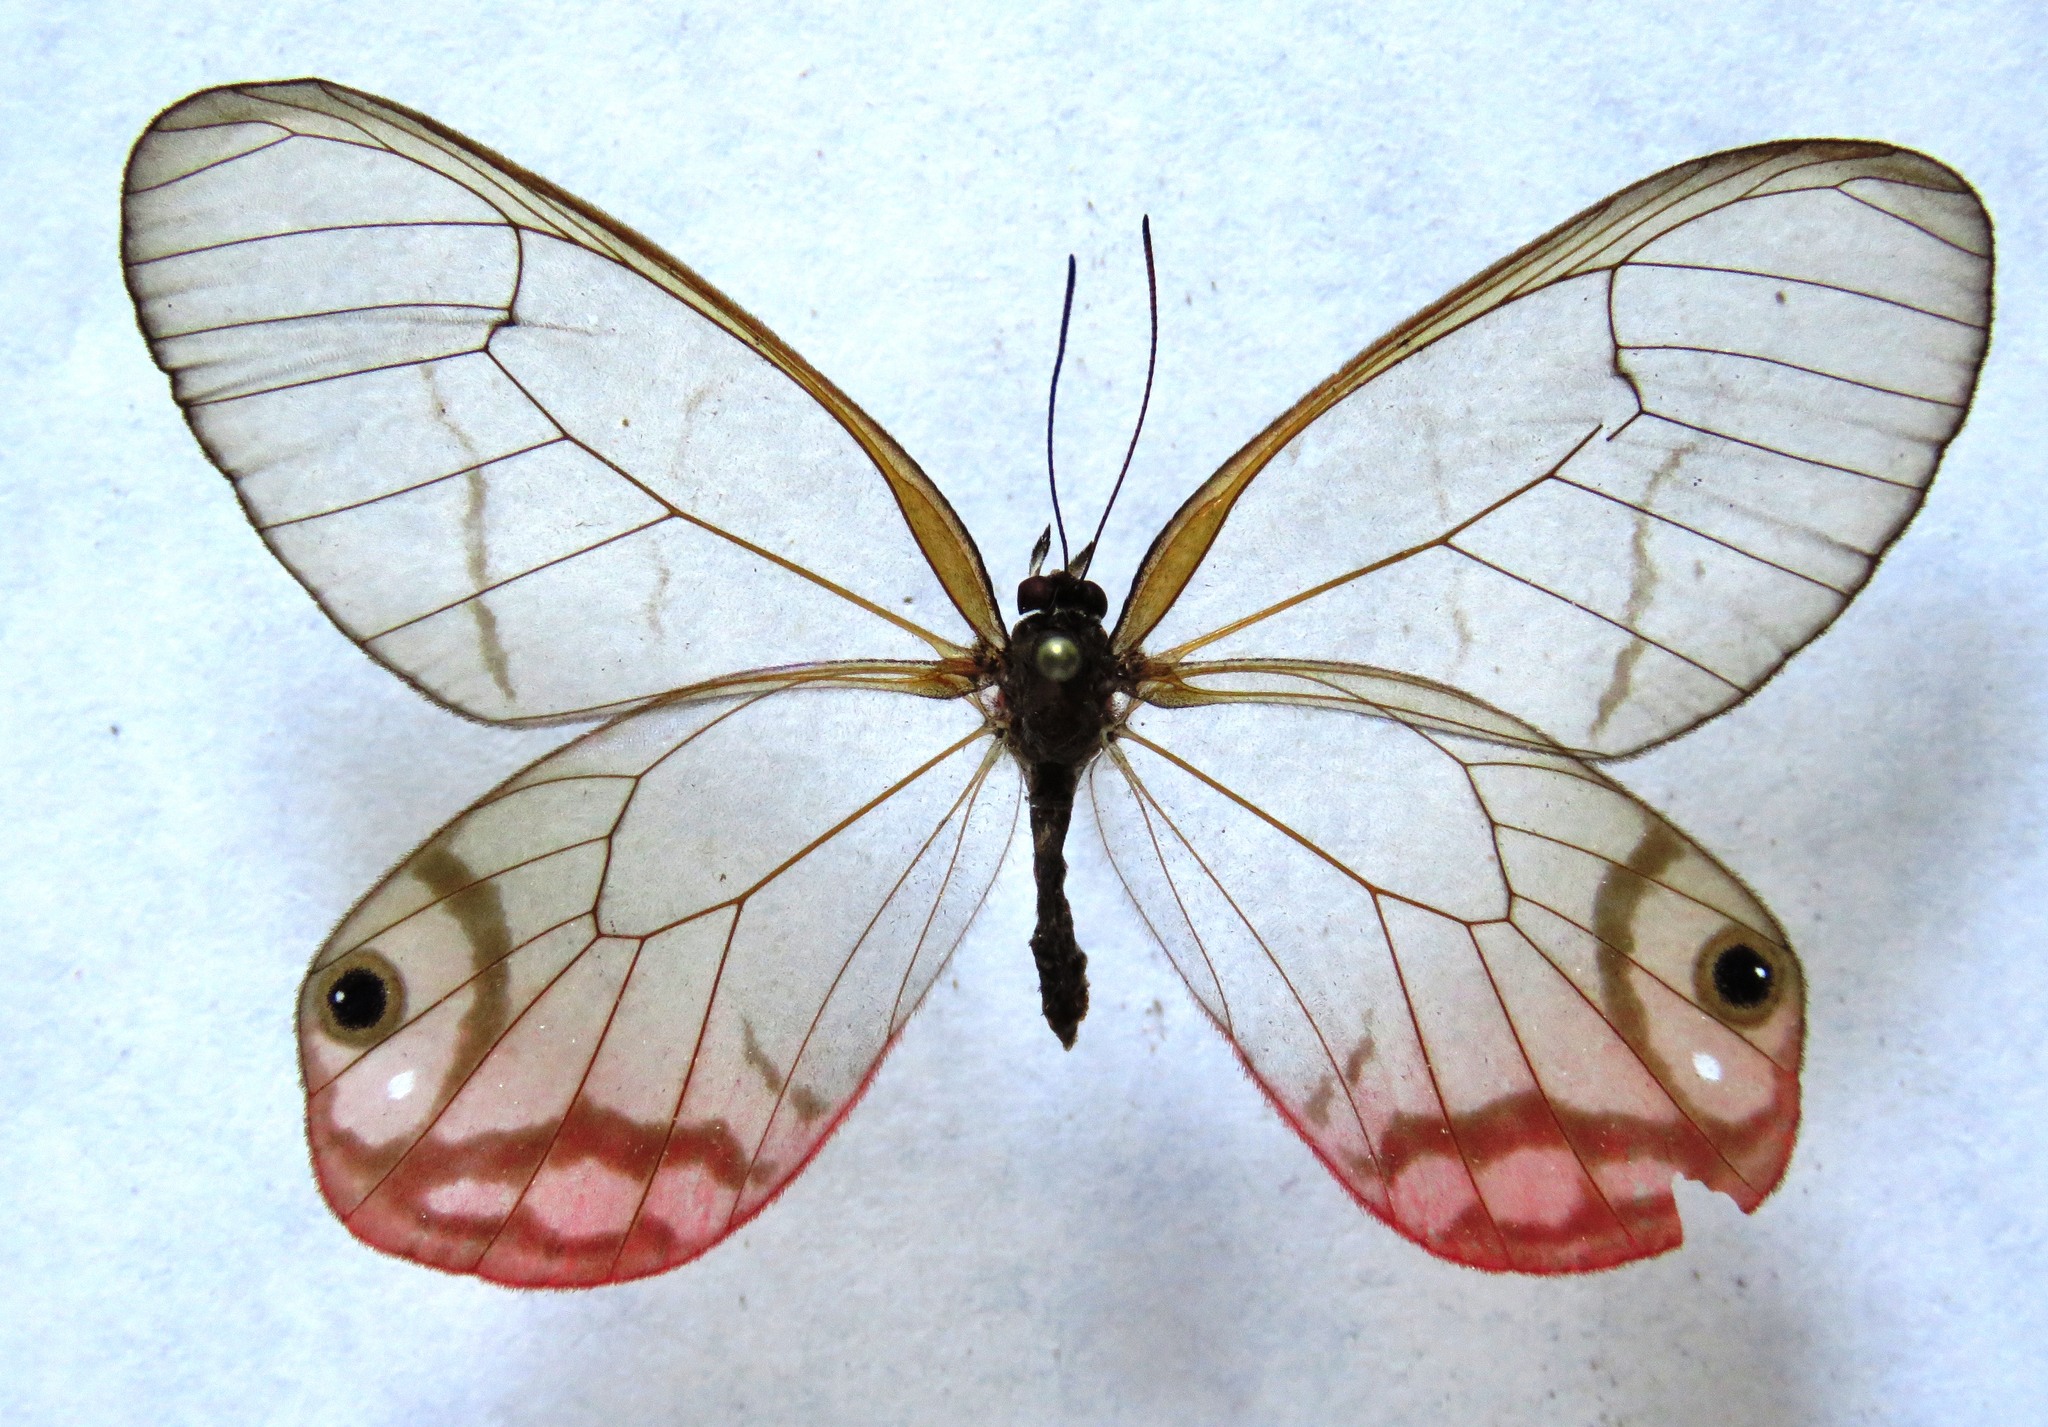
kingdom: Animalia
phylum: Arthropoda
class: Insecta
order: Lepidoptera
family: Nymphalidae
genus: Cithaerias
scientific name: Cithaerias pireta
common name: Rusted clearwing-satyr
